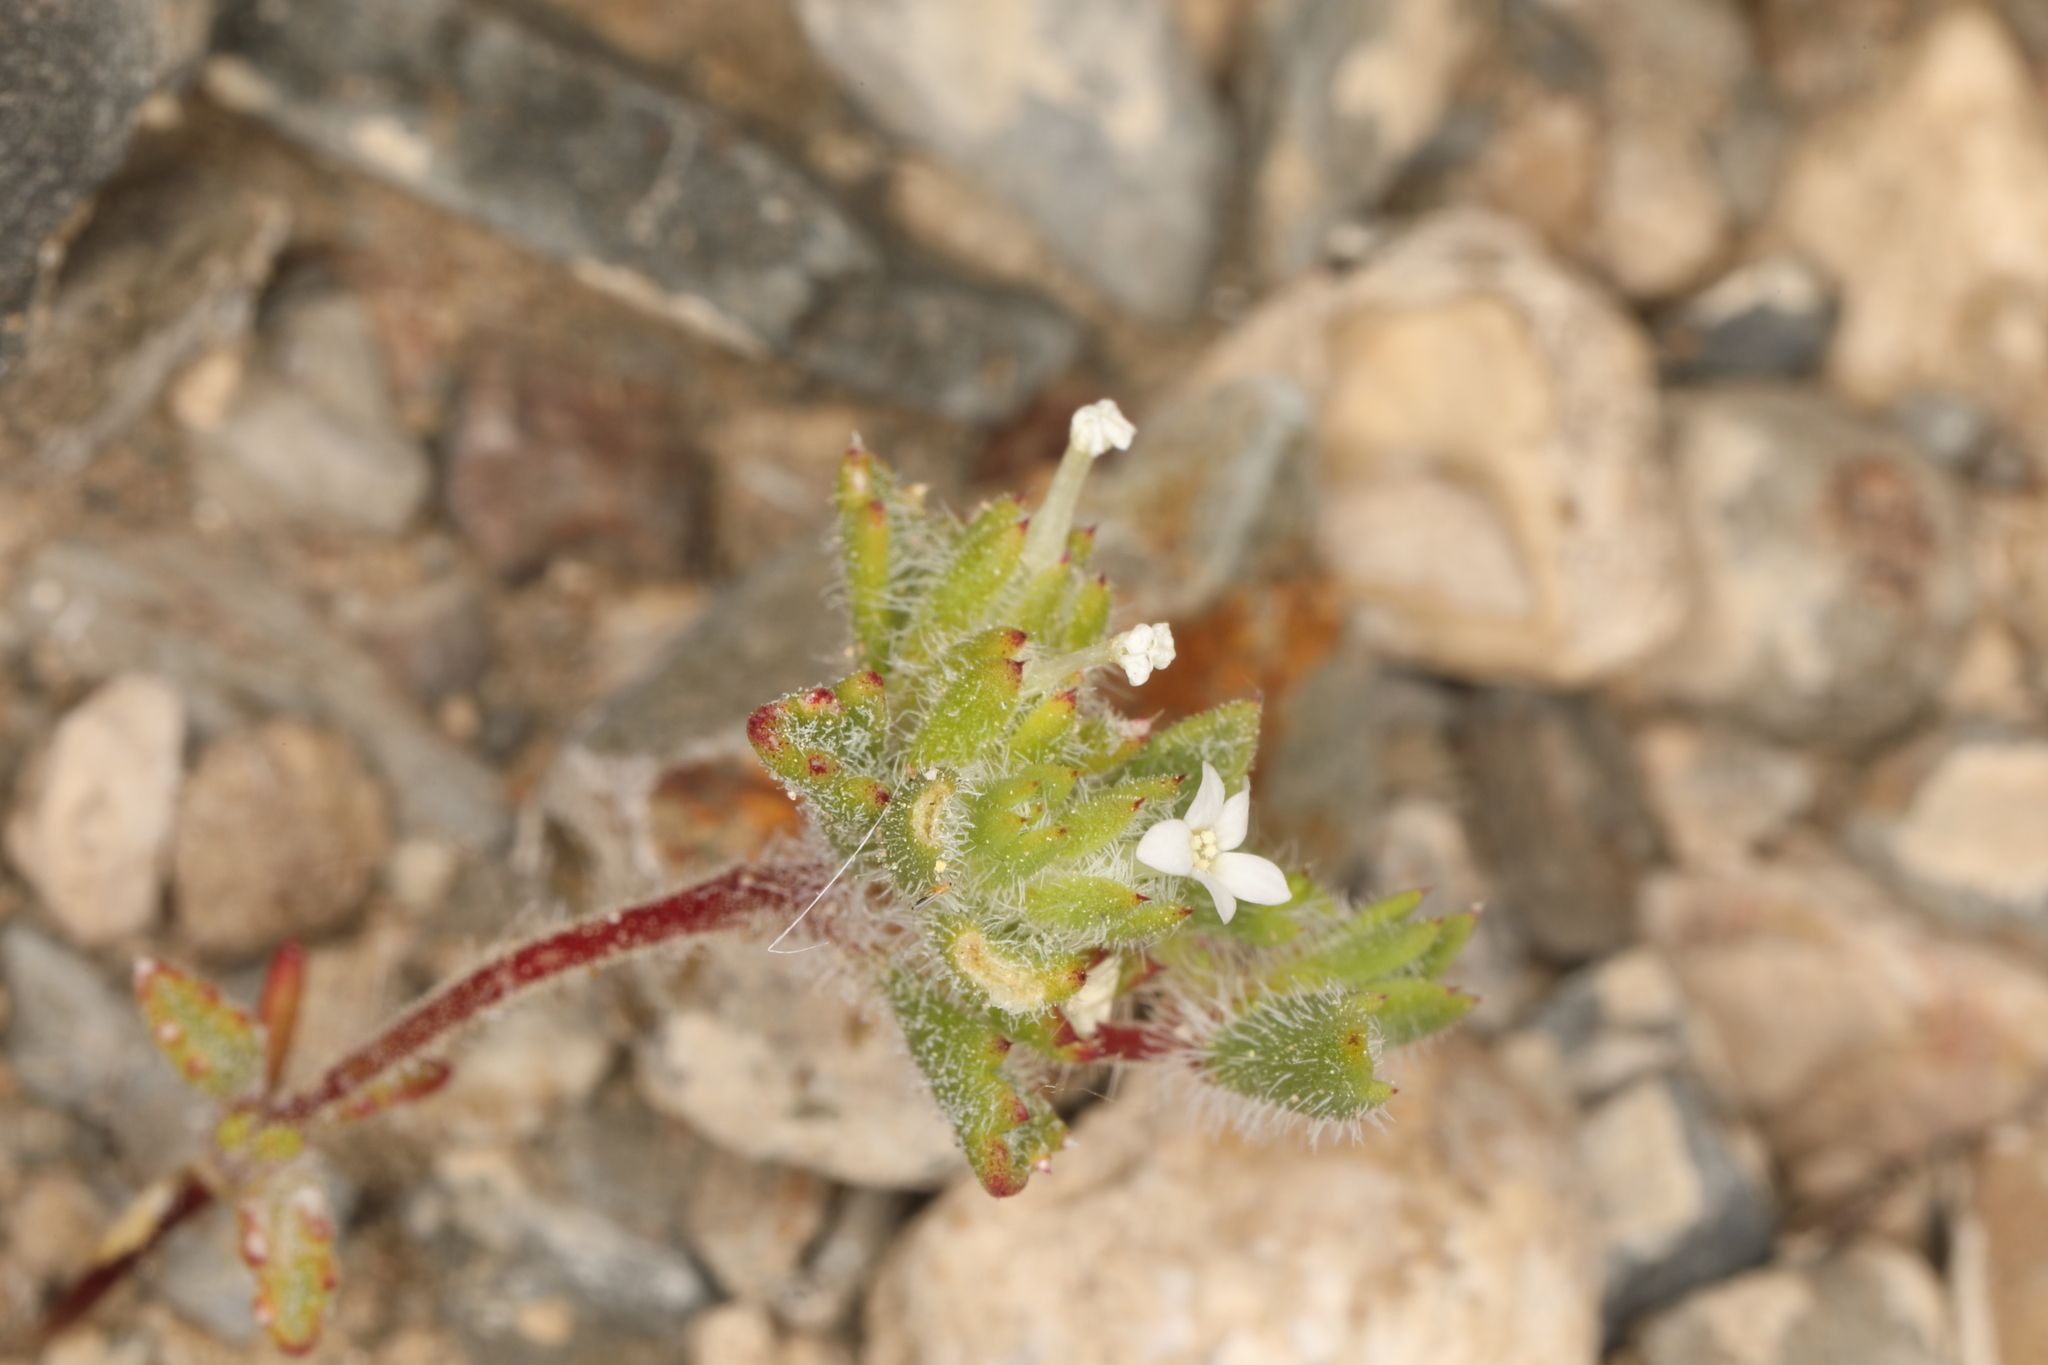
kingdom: Plantae
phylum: Tracheophyta
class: Magnoliopsida
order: Ericales
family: Polemoniaceae
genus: Ipomopsis
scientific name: Ipomopsis polycladon
